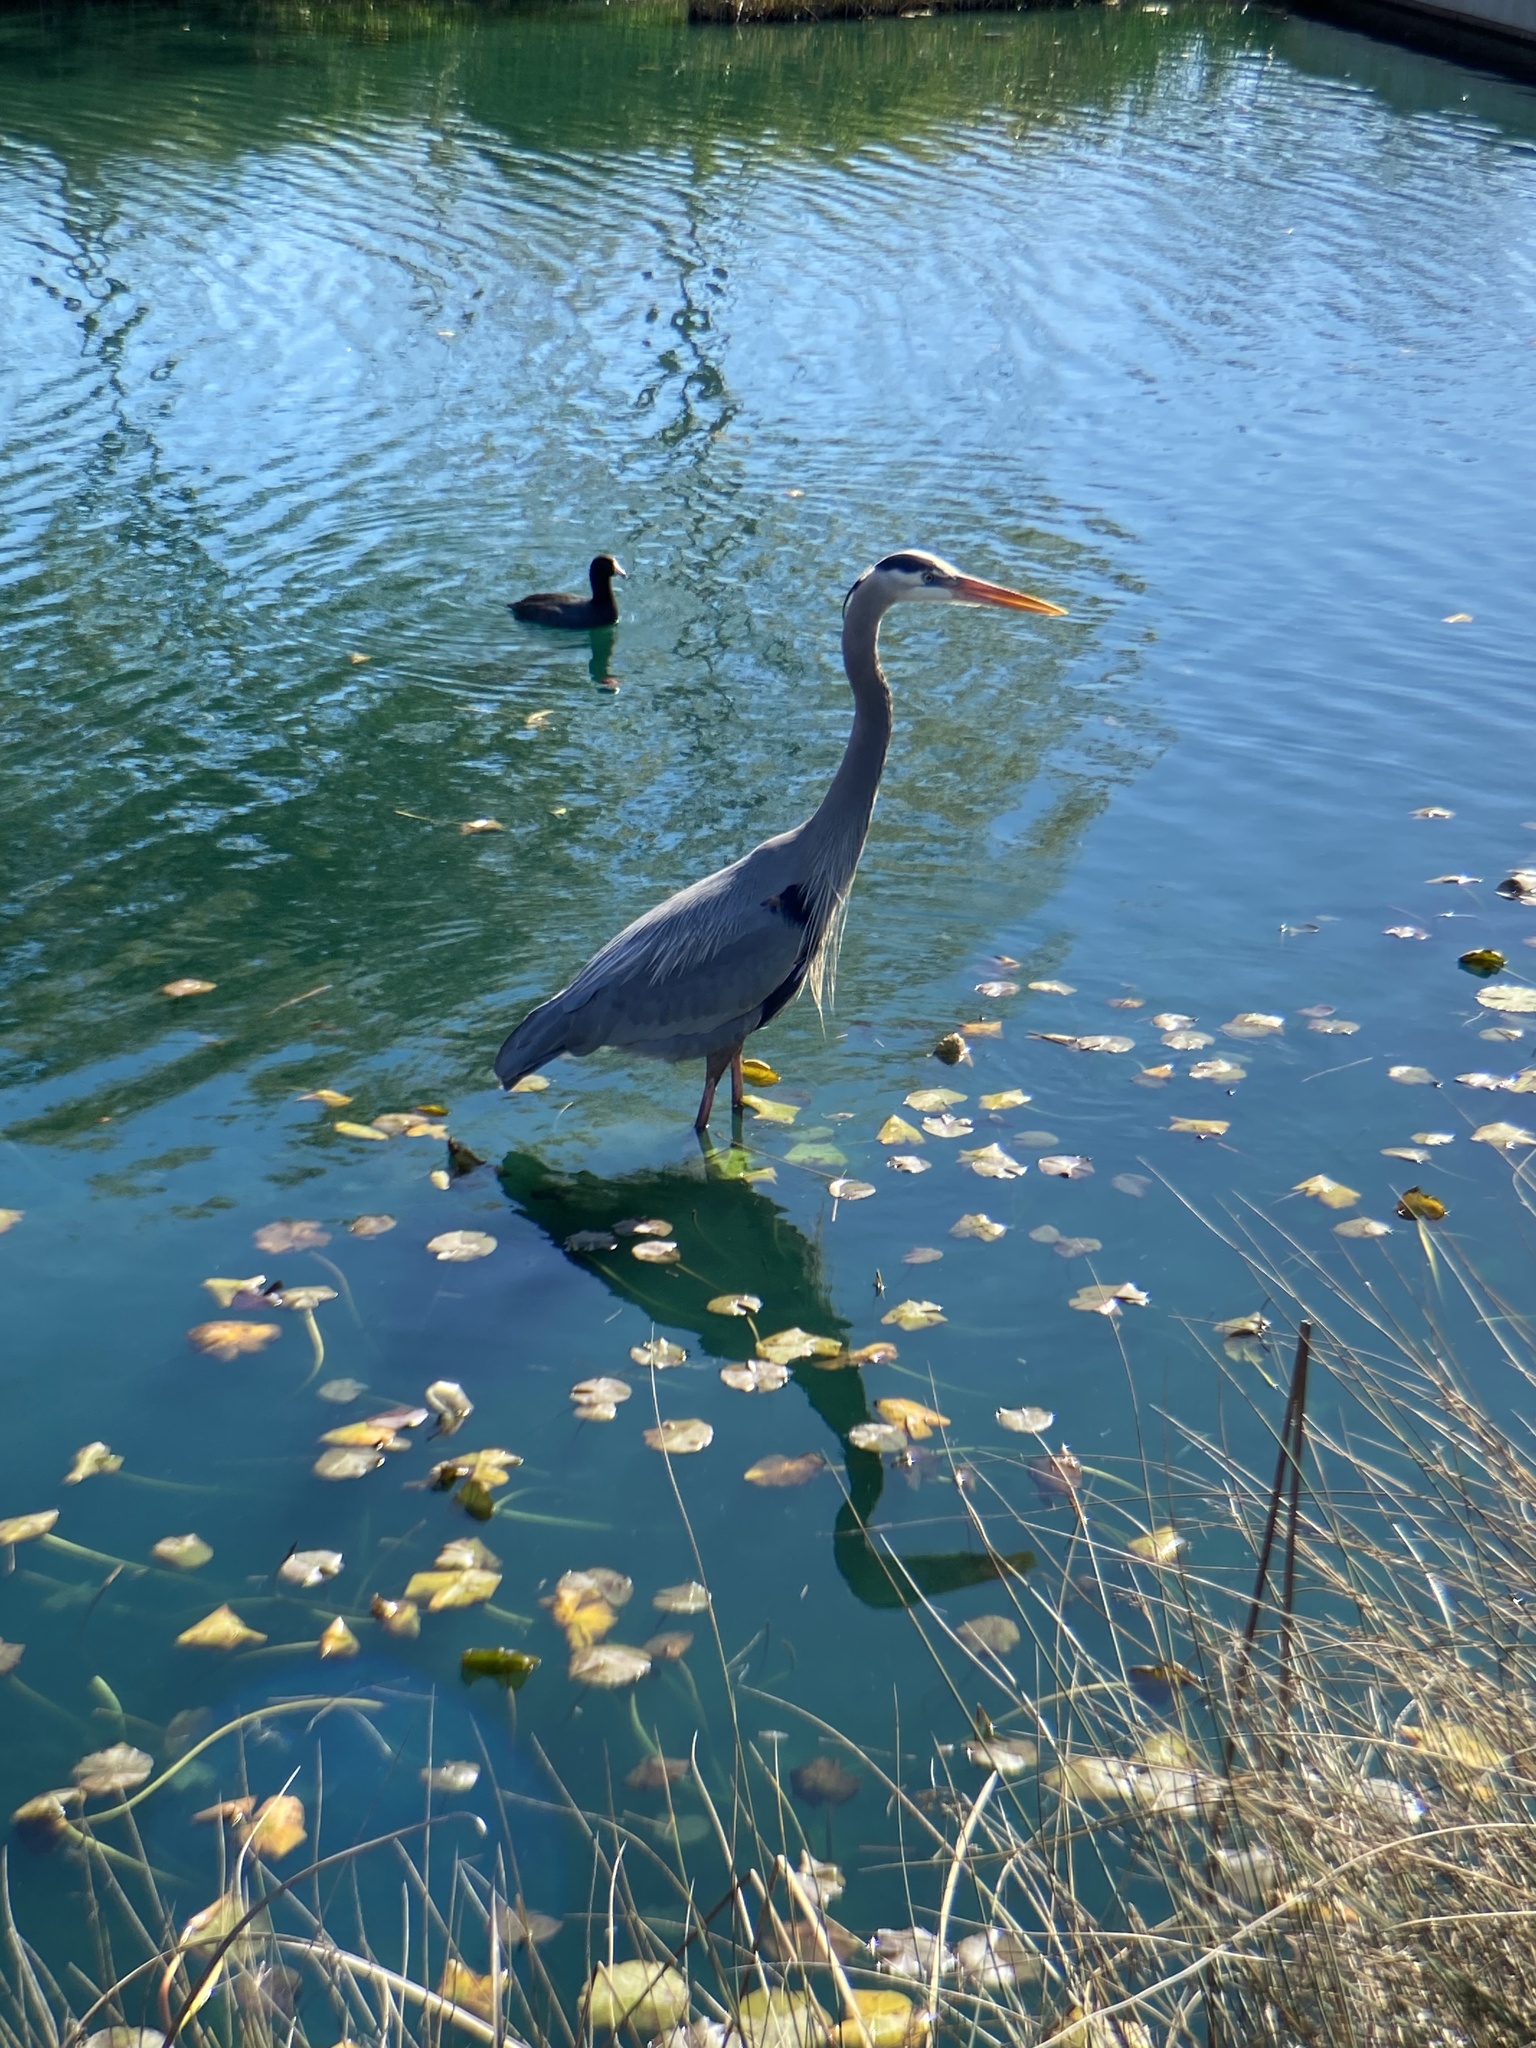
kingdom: Animalia
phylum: Chordata
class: Aves
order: Pelecaniformes
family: Ardeidae
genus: Ardea
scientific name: Ardea herodias
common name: Great blue heron
